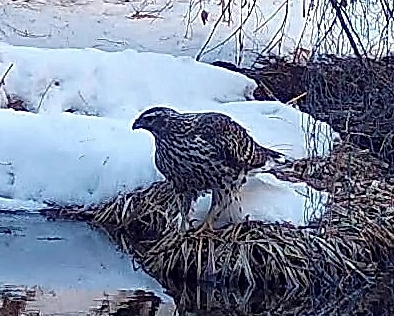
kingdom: Animalia
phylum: Chordata
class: Aves
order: Accipitriformes
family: Accipitridae
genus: Accipiter
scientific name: Accipiter gentilis
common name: Northern goshawk
